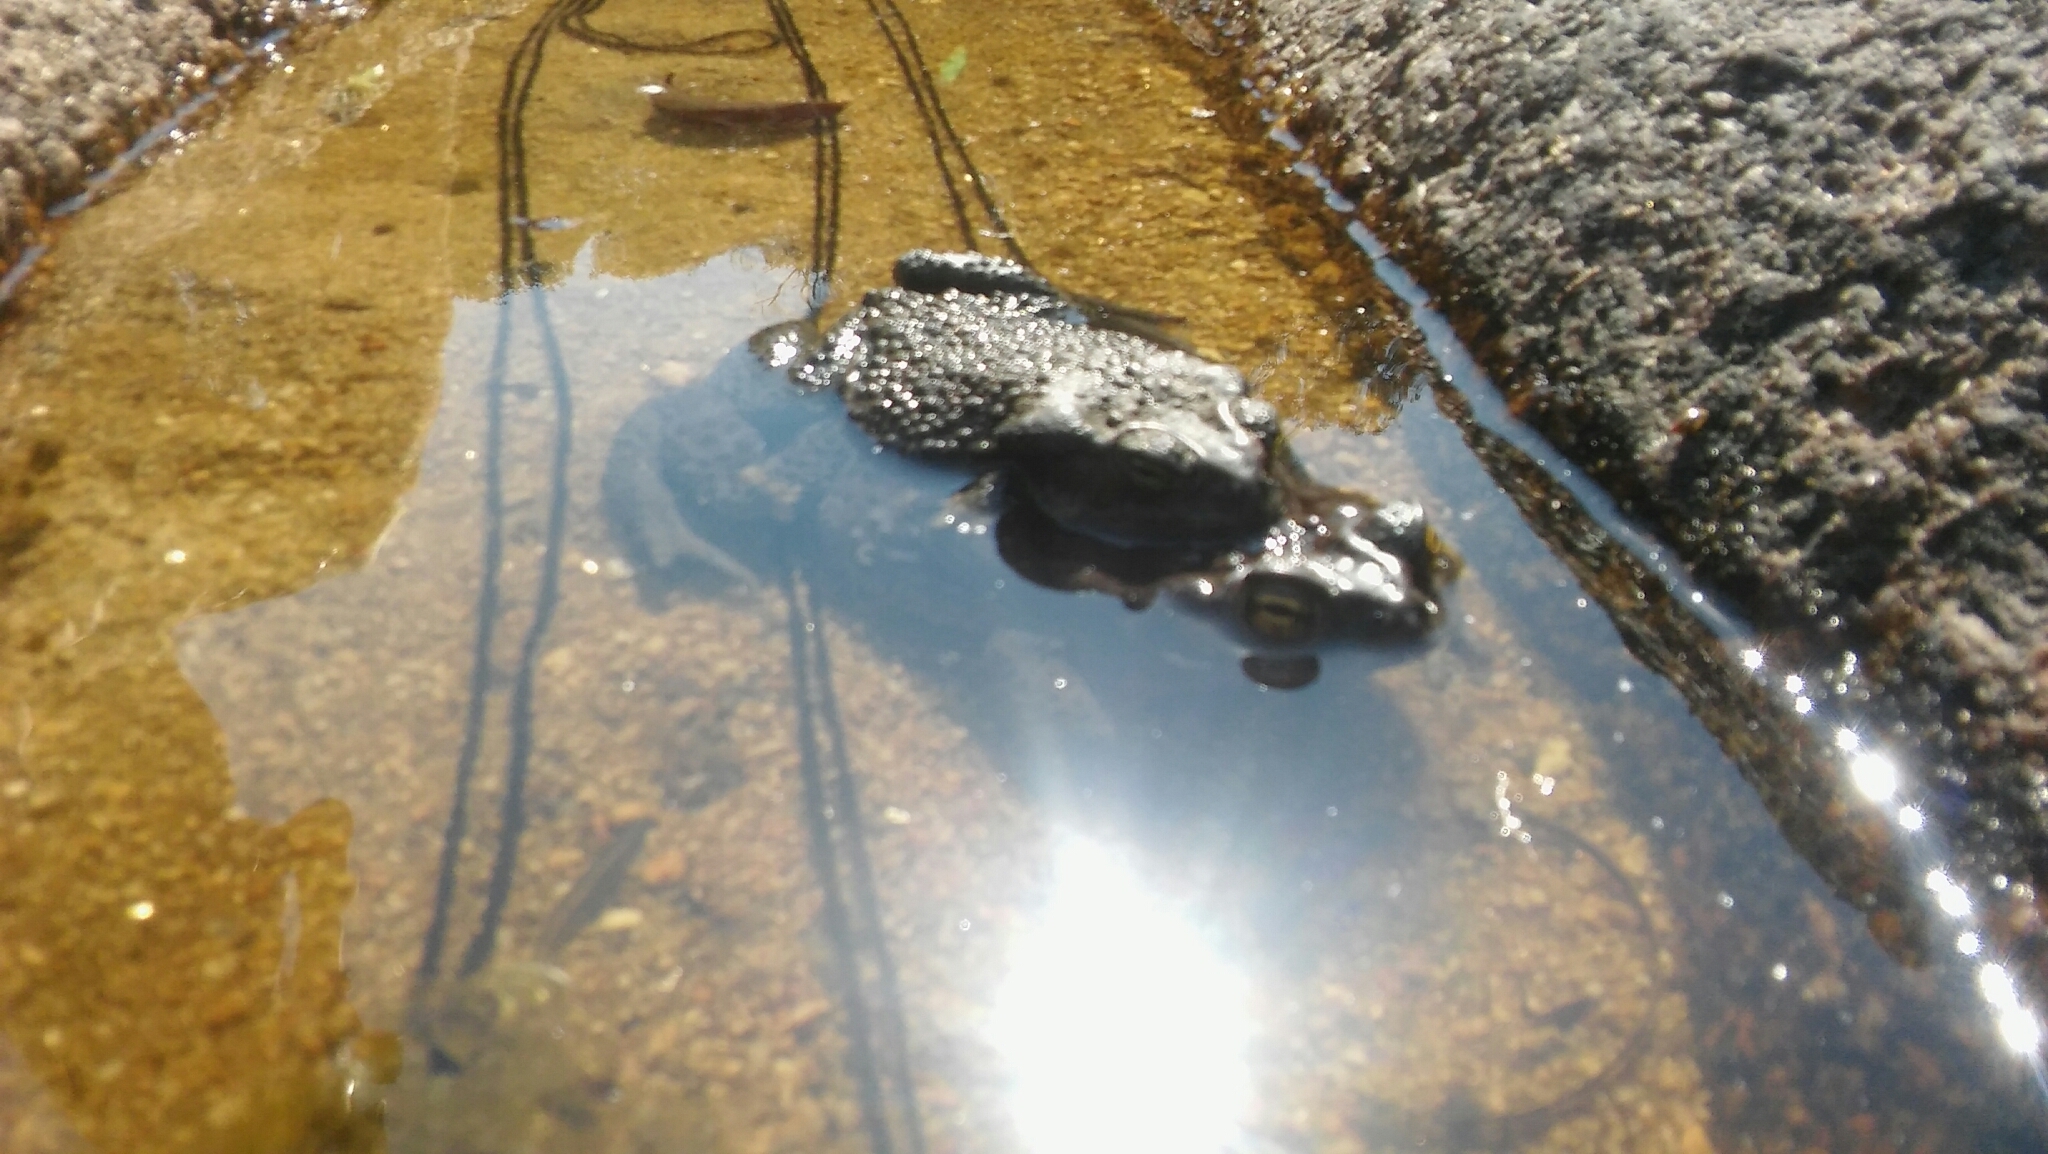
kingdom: Animalia
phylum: Chordata
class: Amphibia
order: Anura
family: Bufonidae
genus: Rhinella
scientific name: Rhinella arenarum
